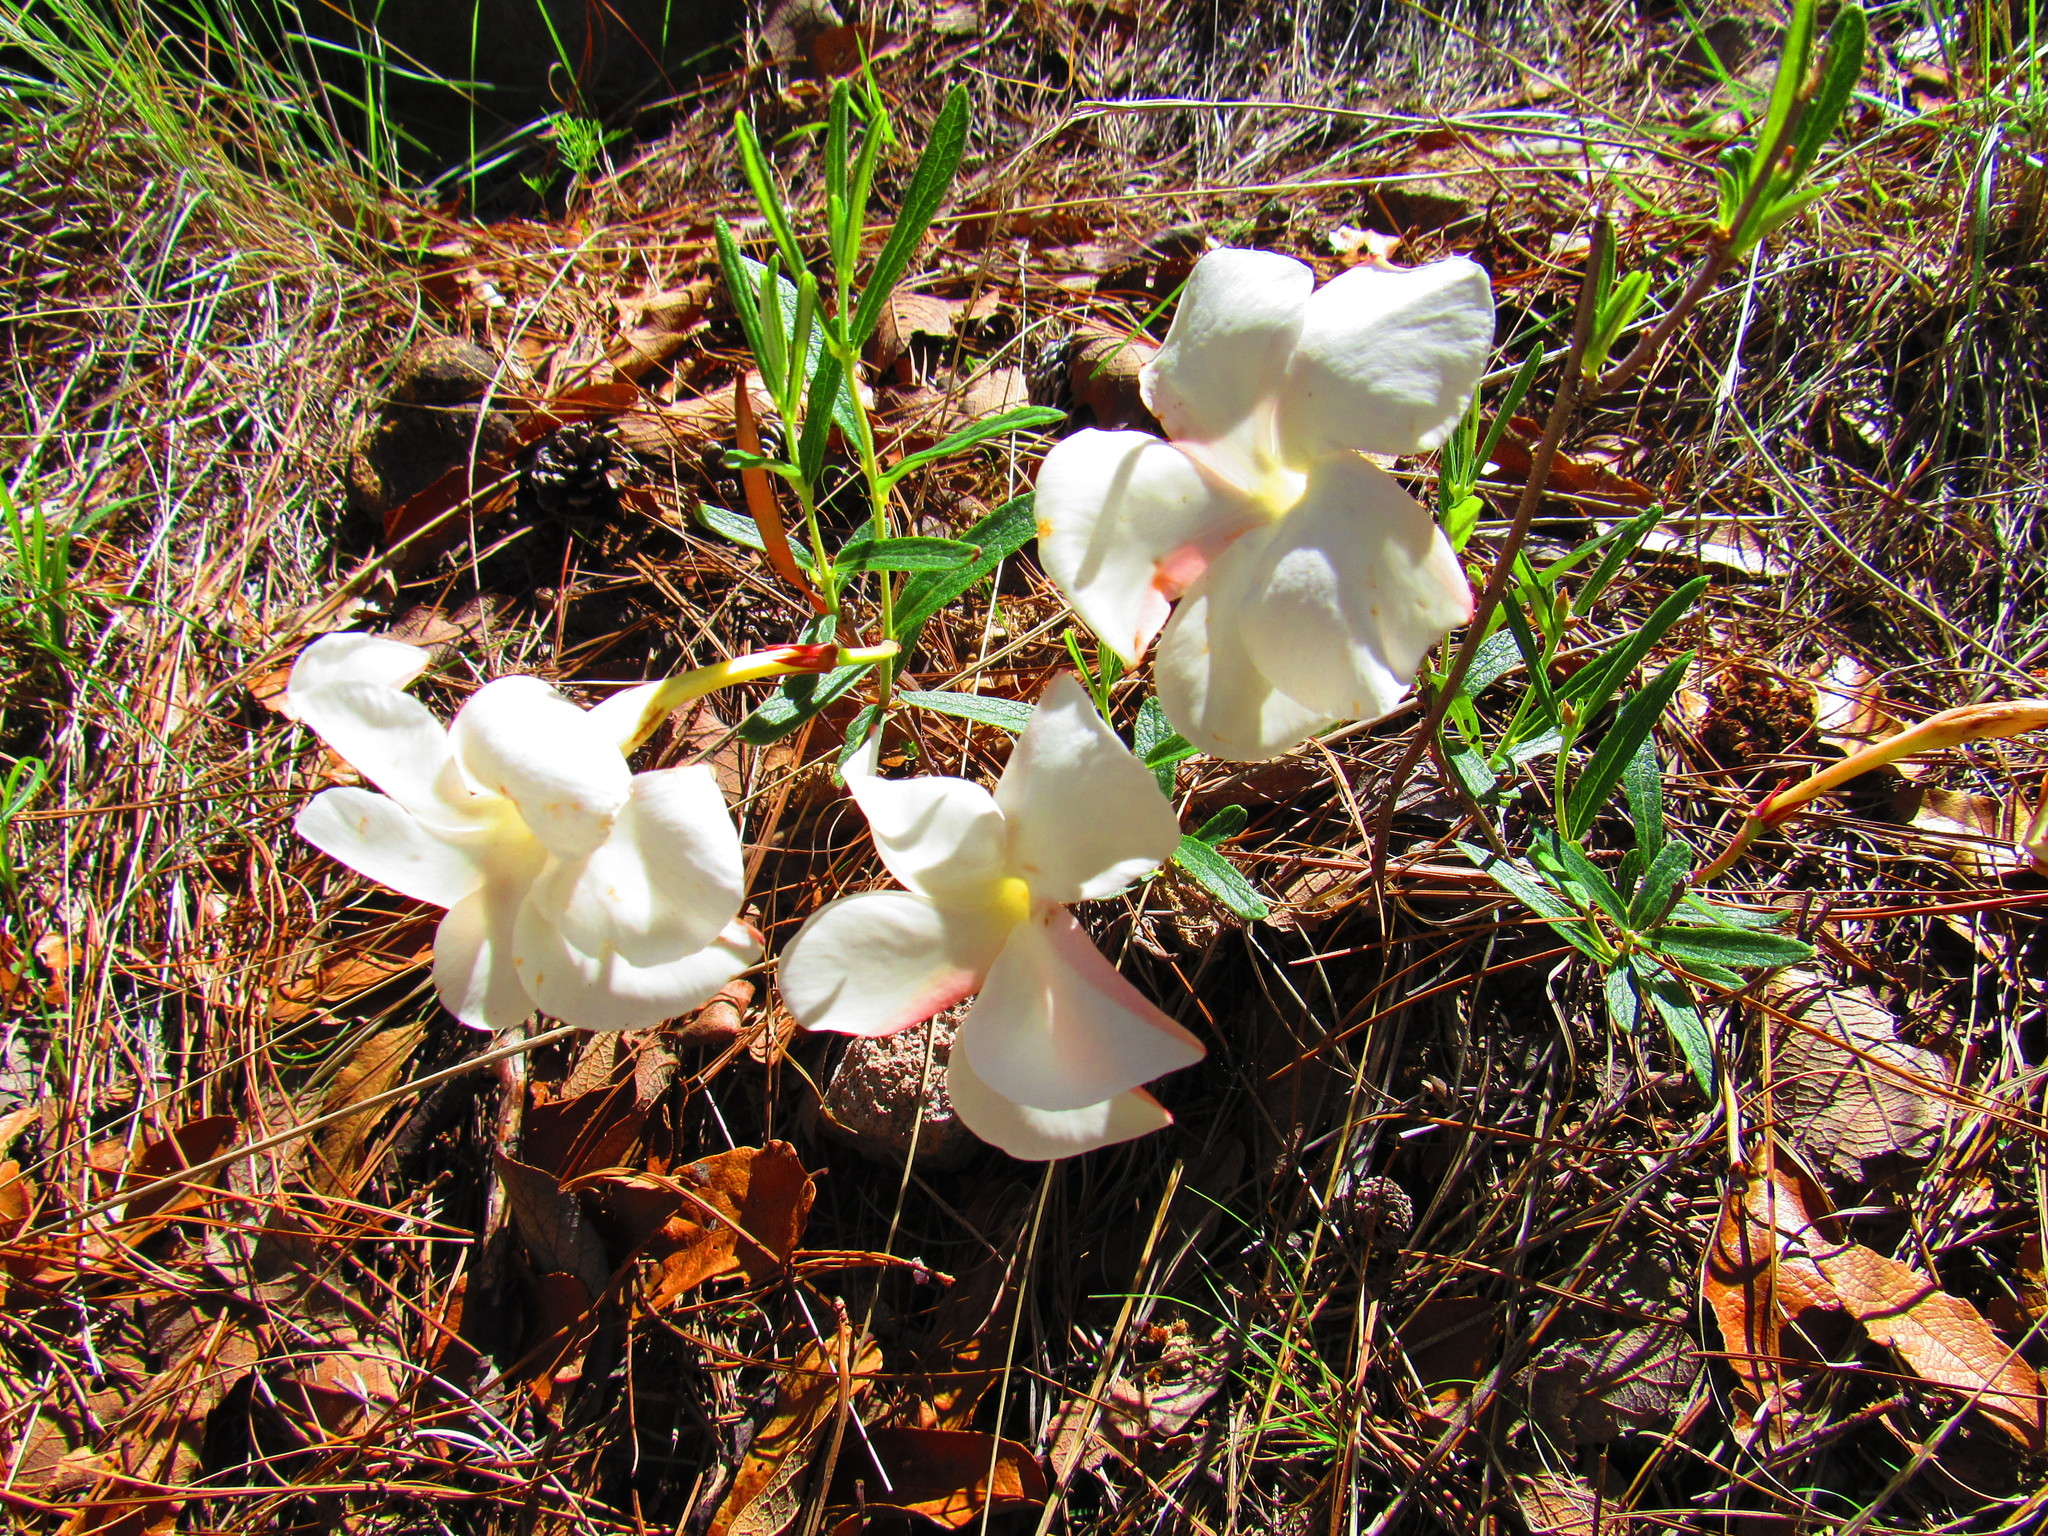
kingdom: Plantae
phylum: Tracheophyta
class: Magnoliopsida
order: Gentianales
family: Apocynaceae
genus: Mandevilla
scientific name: Mandevilla hypoleuca
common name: Davis mountain rocktrumpet
